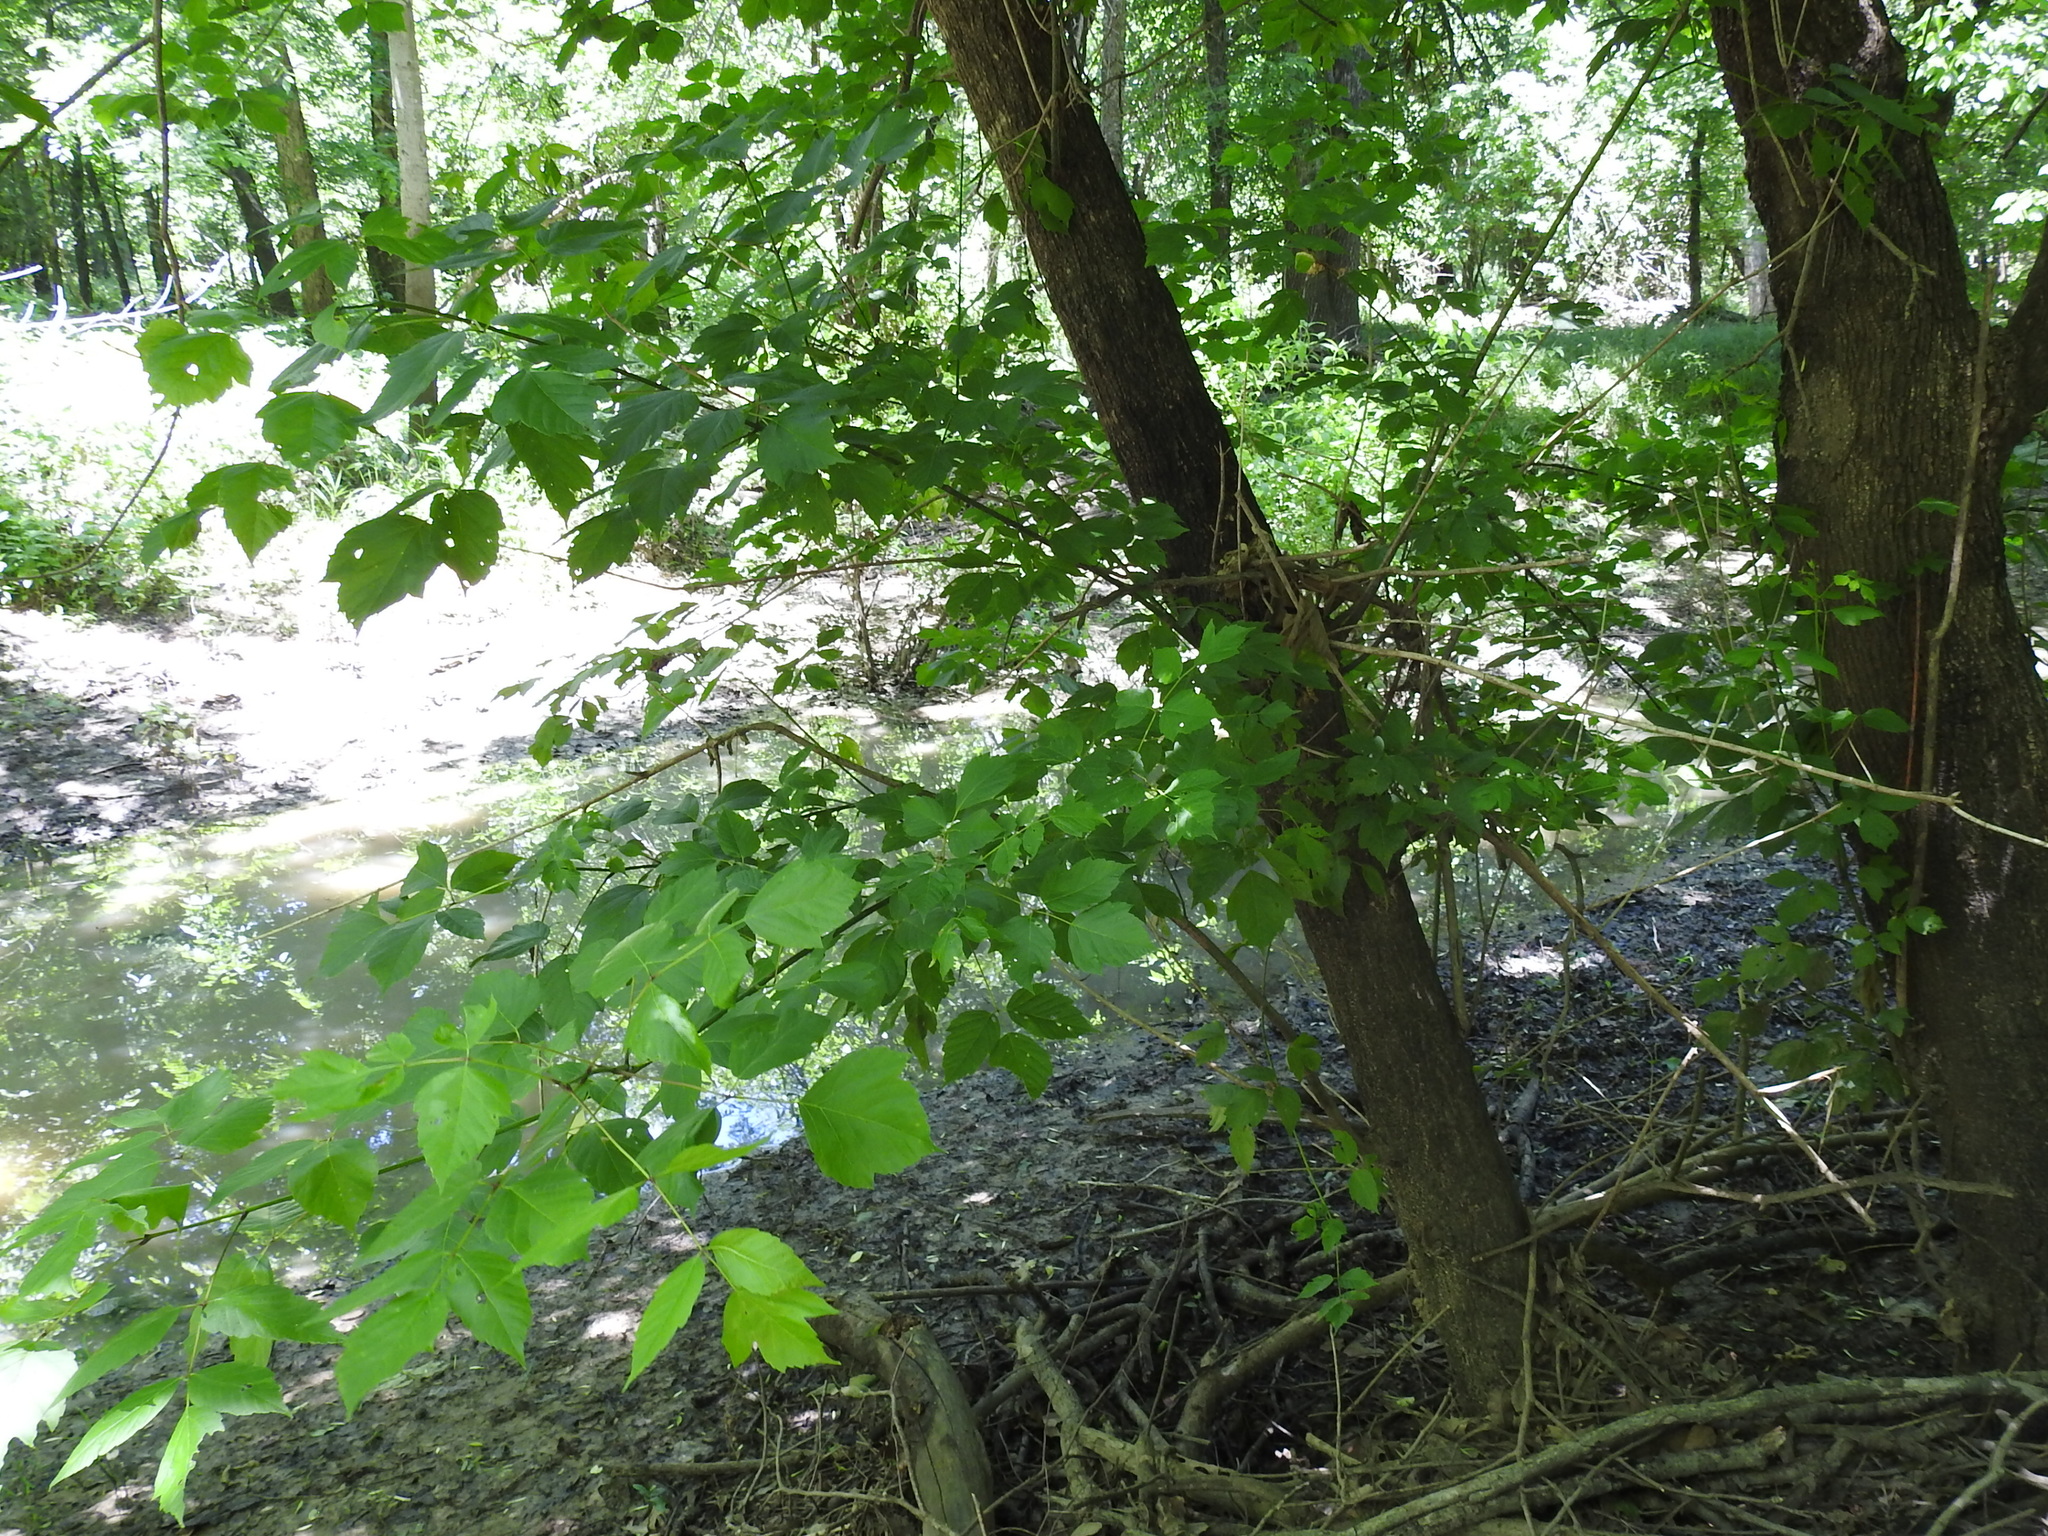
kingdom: Plantae
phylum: Tracheophyta
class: Magnoliopsida
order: Sapindales
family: Sapindaceae
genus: Acer
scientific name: Acer negundo
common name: Ashleaf maple
